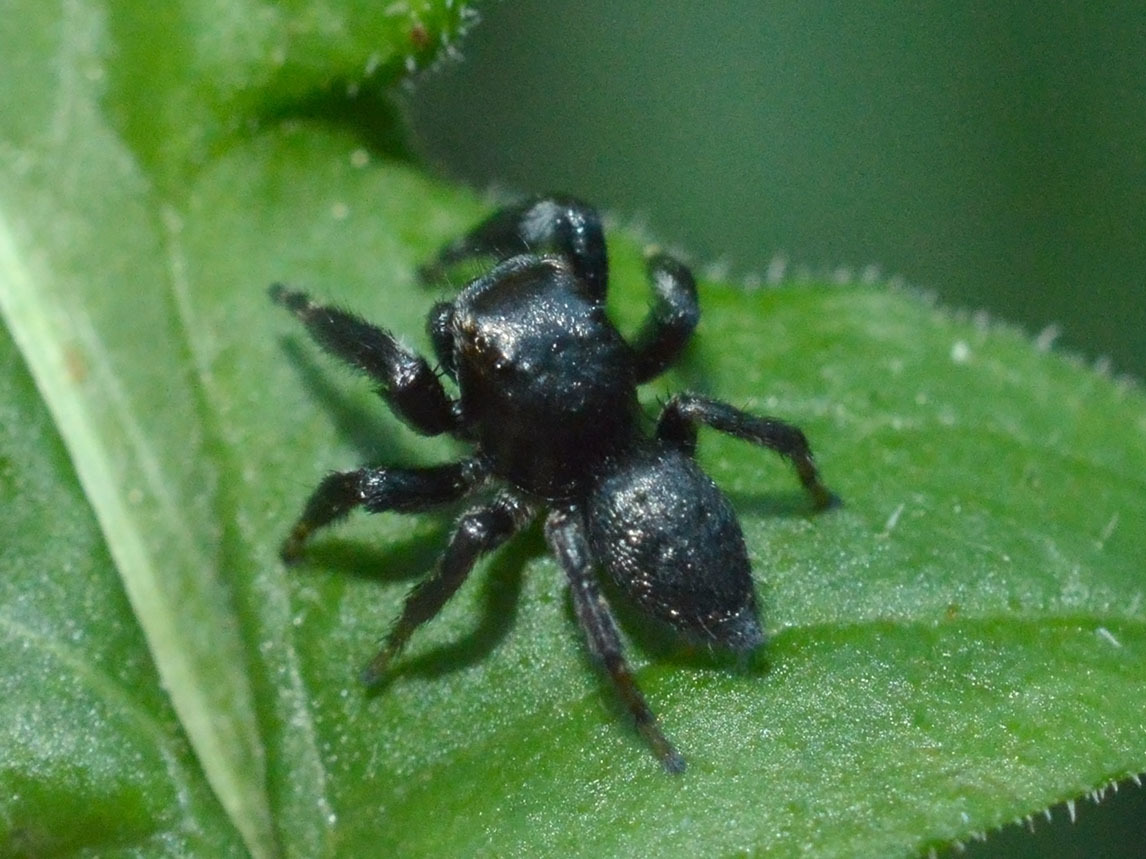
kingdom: Animalia
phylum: Arthropoda
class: Arachnida
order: Araneae
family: Salticidae
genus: Evarcha
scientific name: Evarcha arcuata
